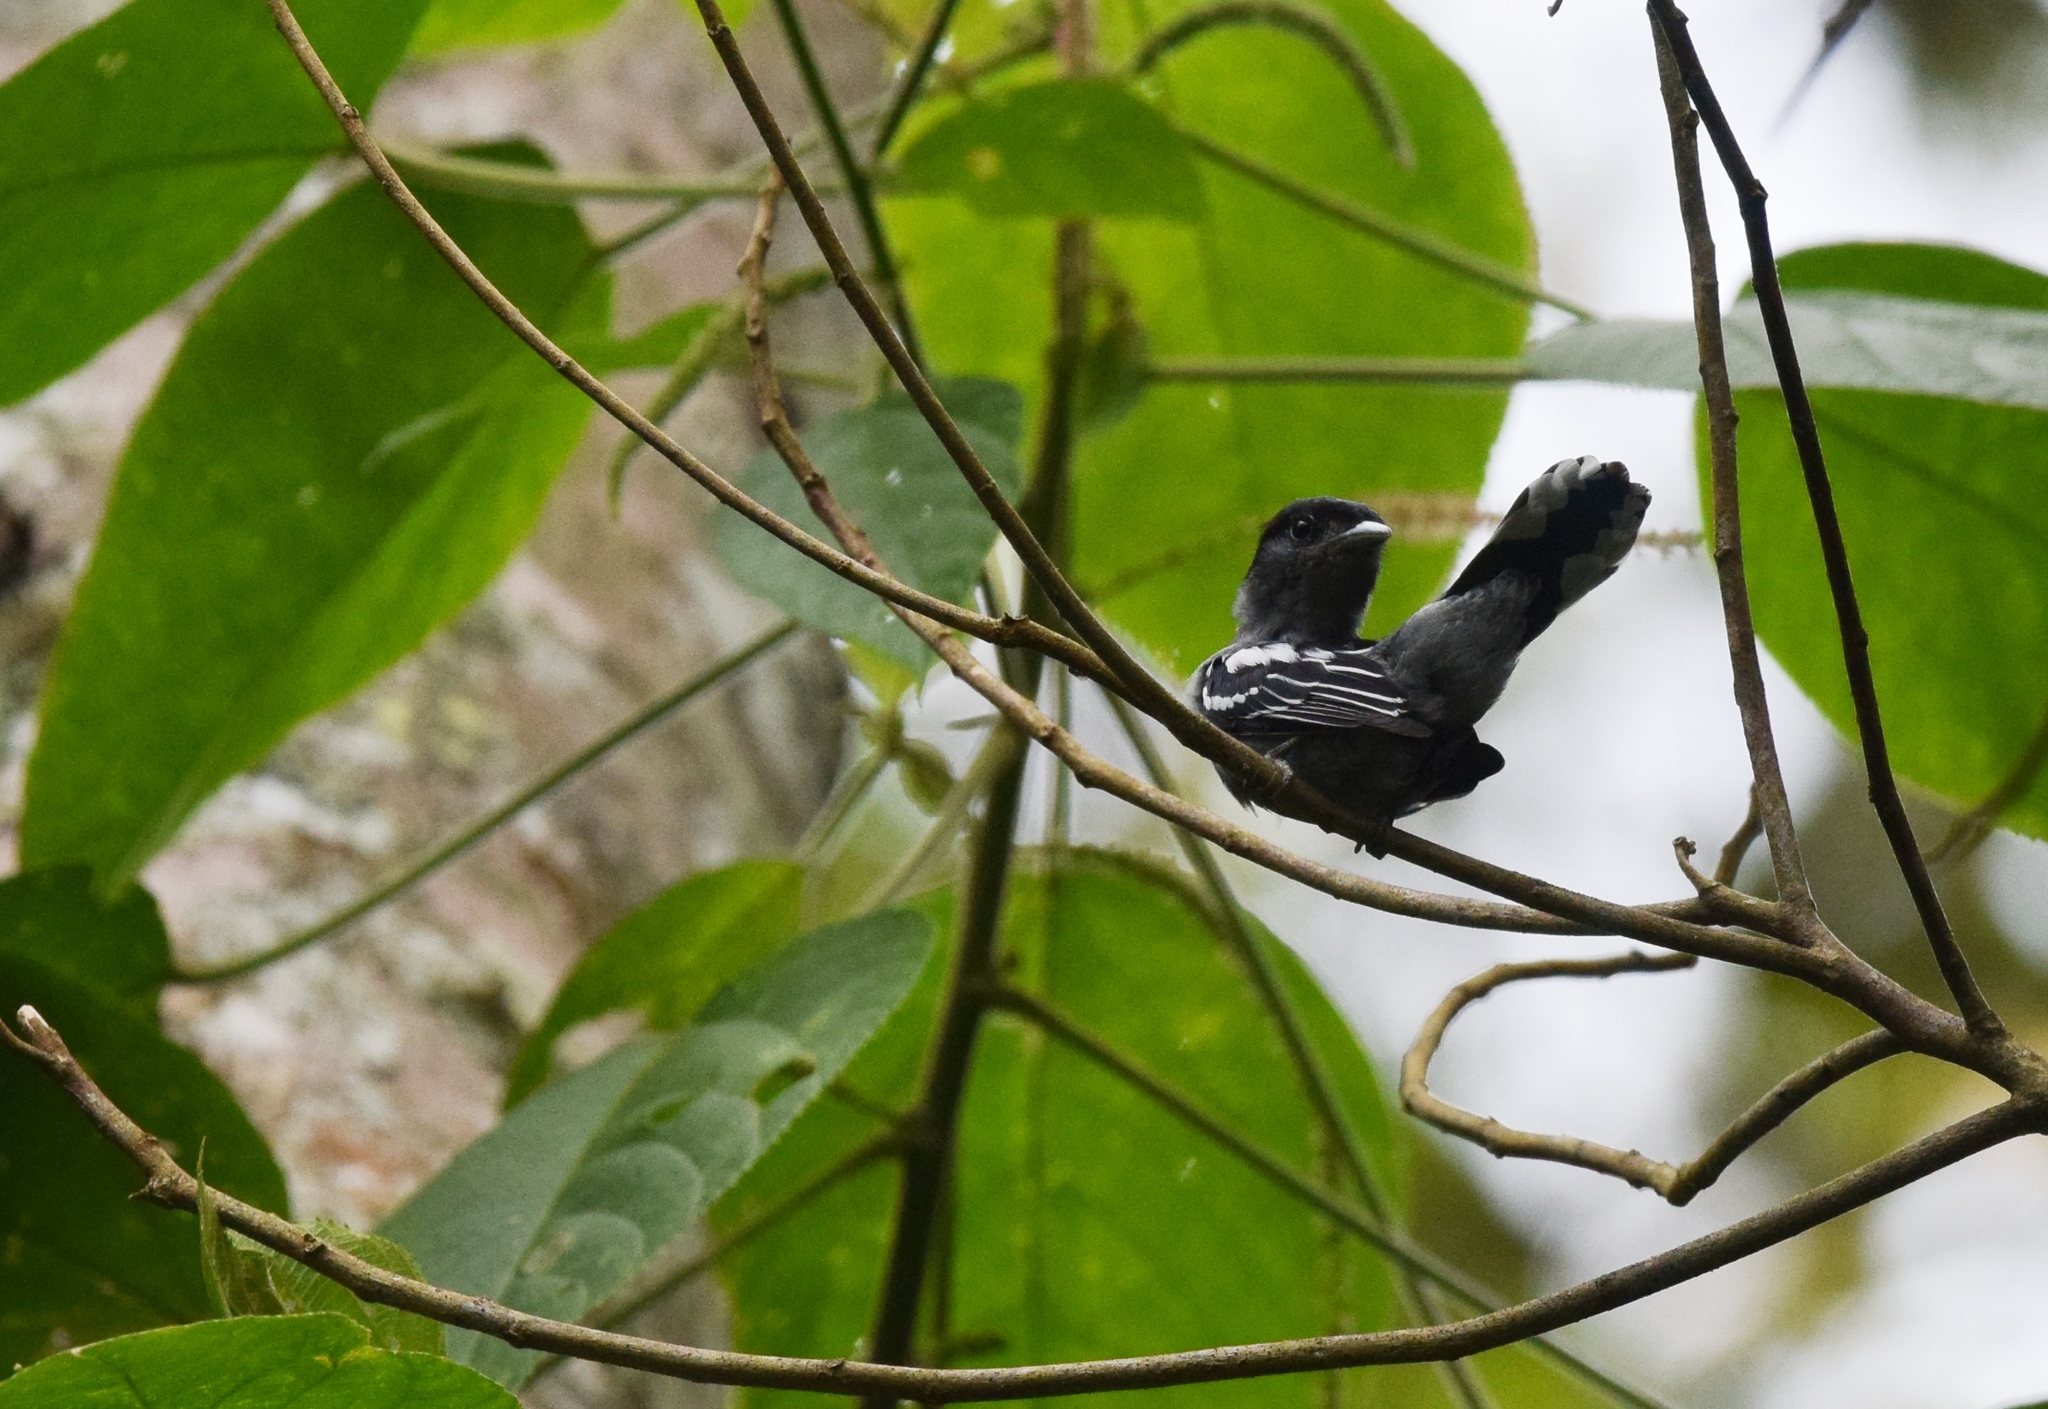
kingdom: Animalia
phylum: Chordata
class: Aves
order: Passeriformes
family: Cotingidae
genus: Pachyramphus
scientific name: Pachyramphus polychopterus
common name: White-winged becard
